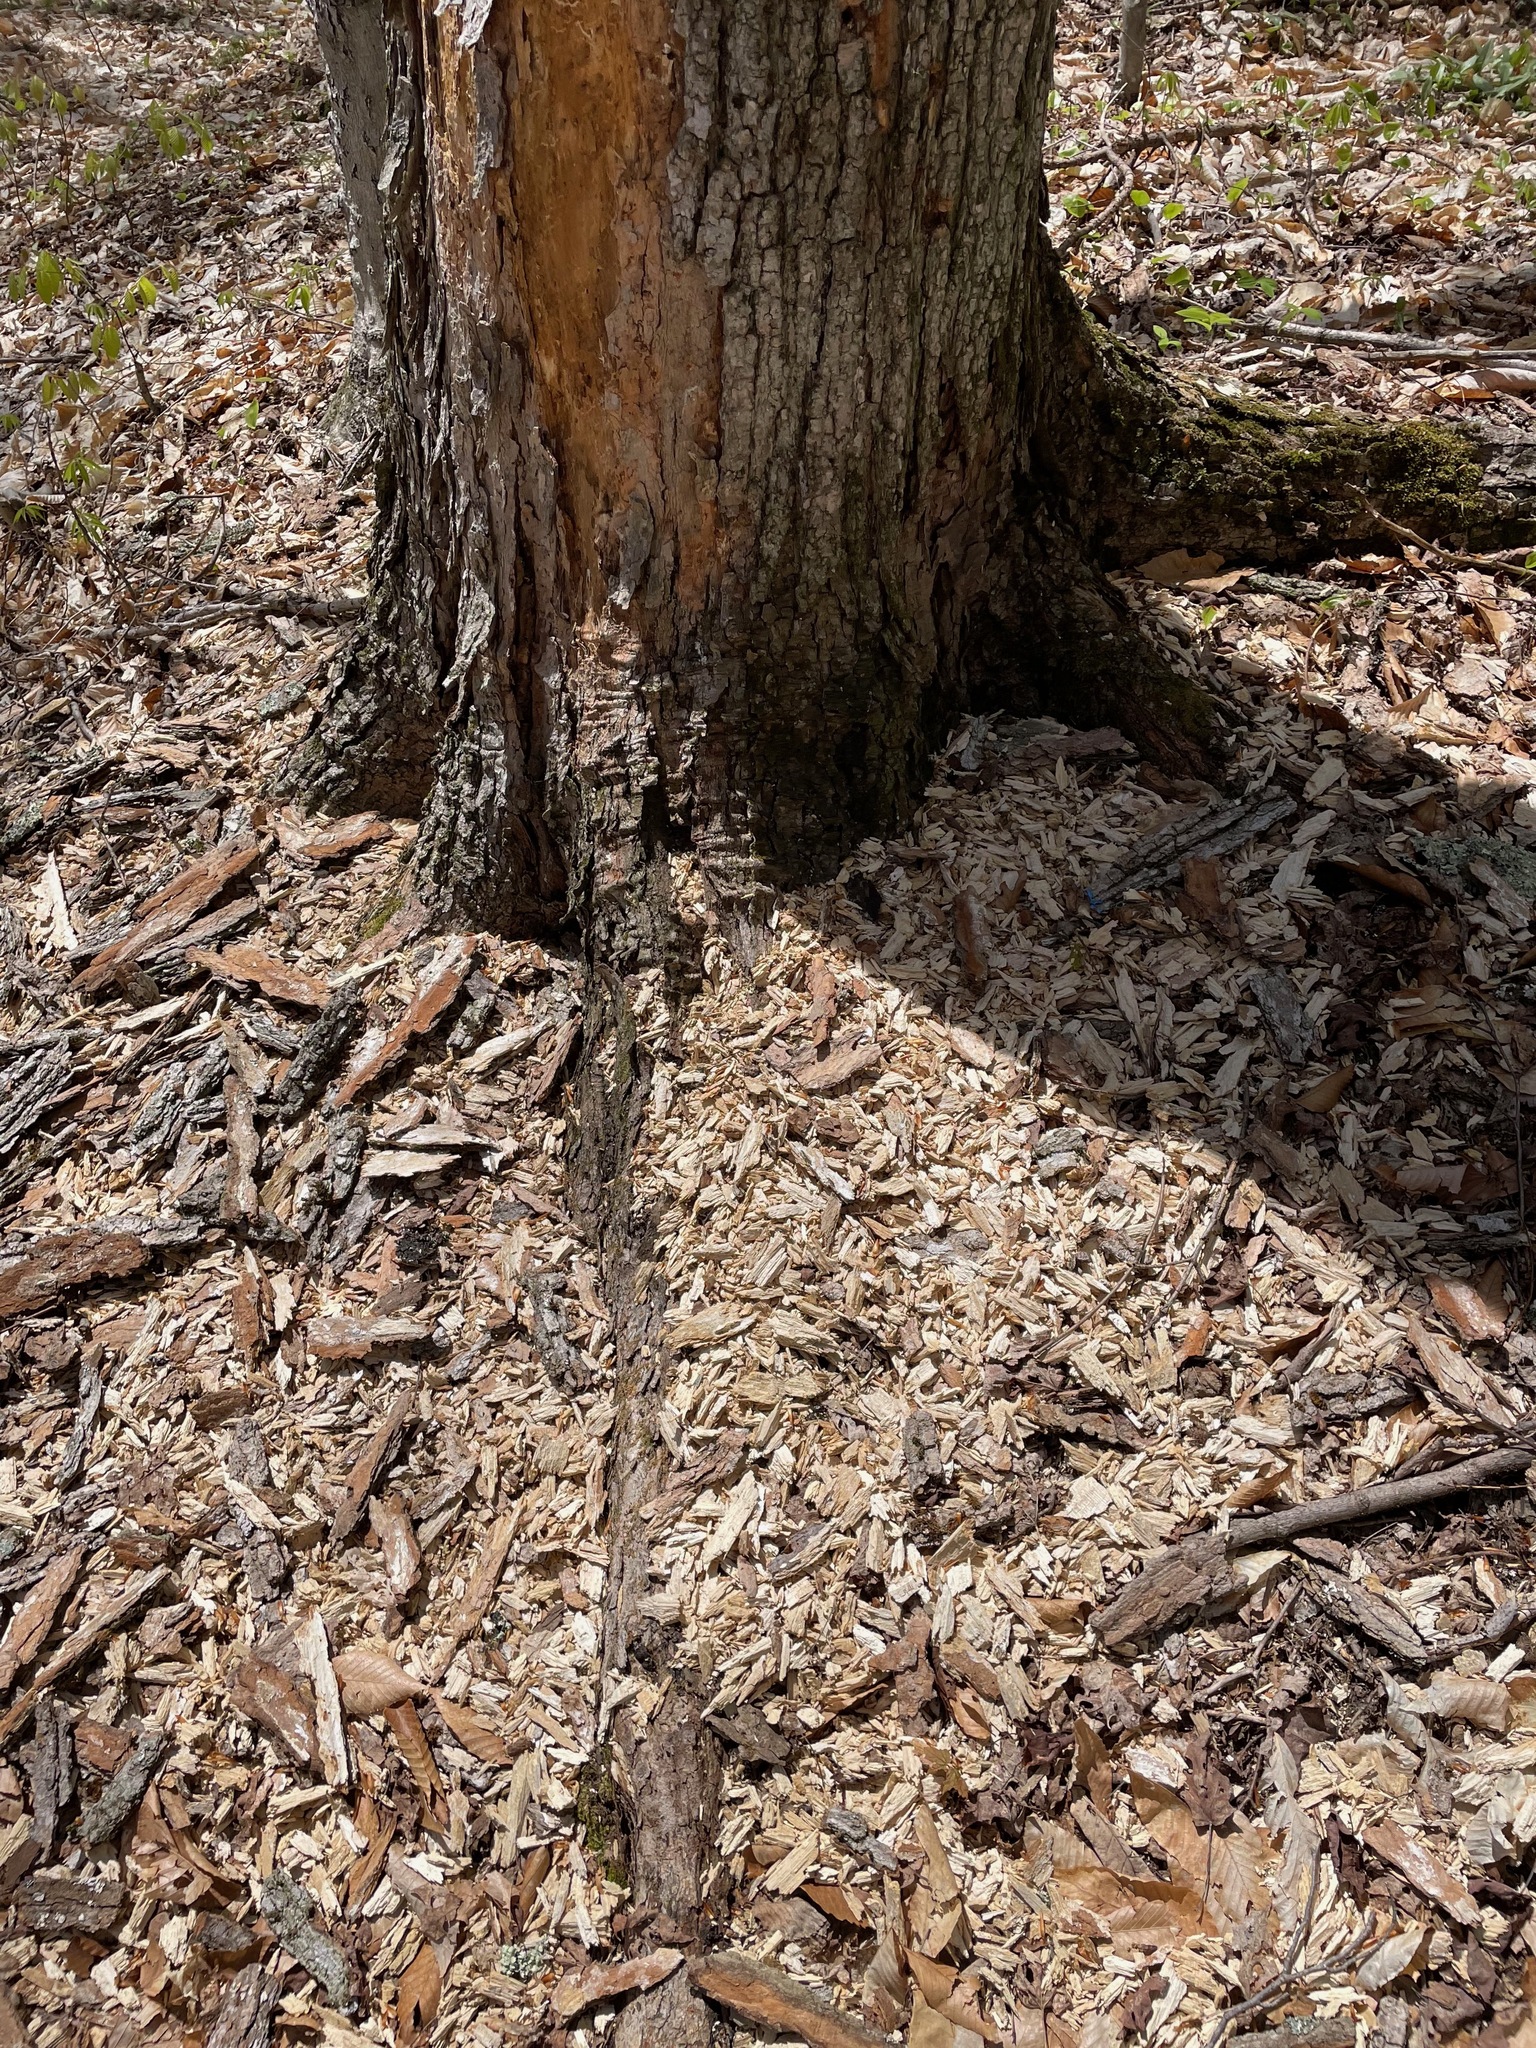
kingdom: Animalia
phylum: Chordata
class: Aves
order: Piciformes
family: Picidae
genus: Dryocopus
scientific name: Dryocopus pileatus
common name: Pileated woodpecker
